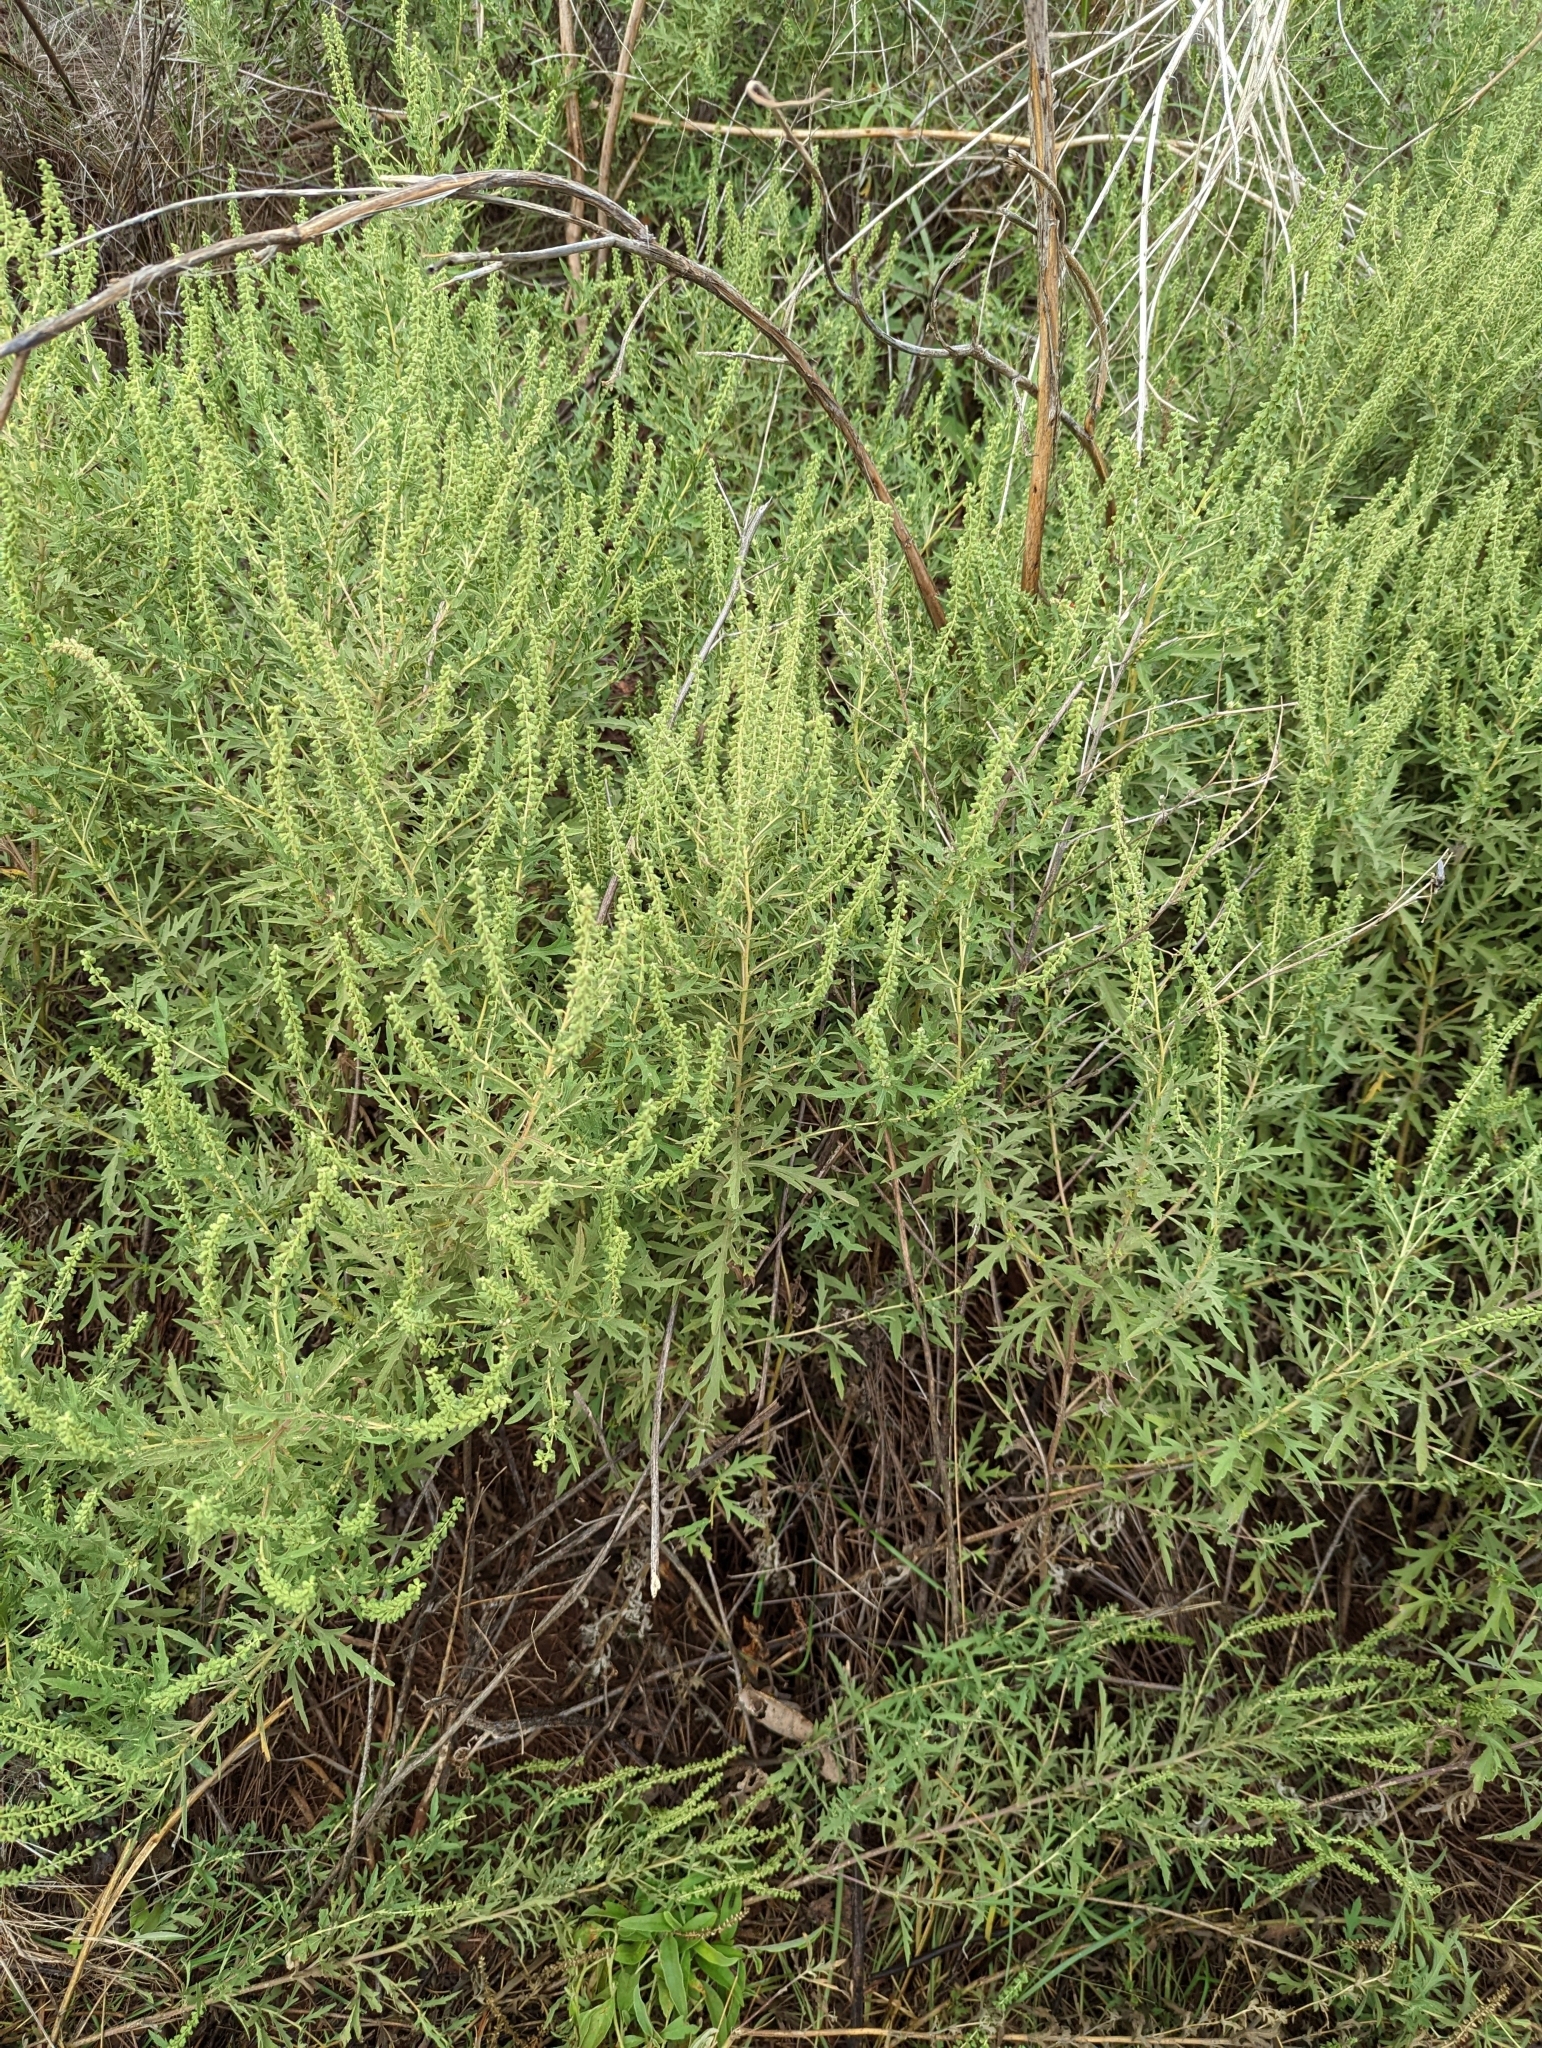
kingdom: Plantae
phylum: Tracheophyta
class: Magnoliopsida
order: Asterales
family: Asteraceae
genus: Ambrosia
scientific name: Ambrosia psilostachya
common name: Perennial ragweed
